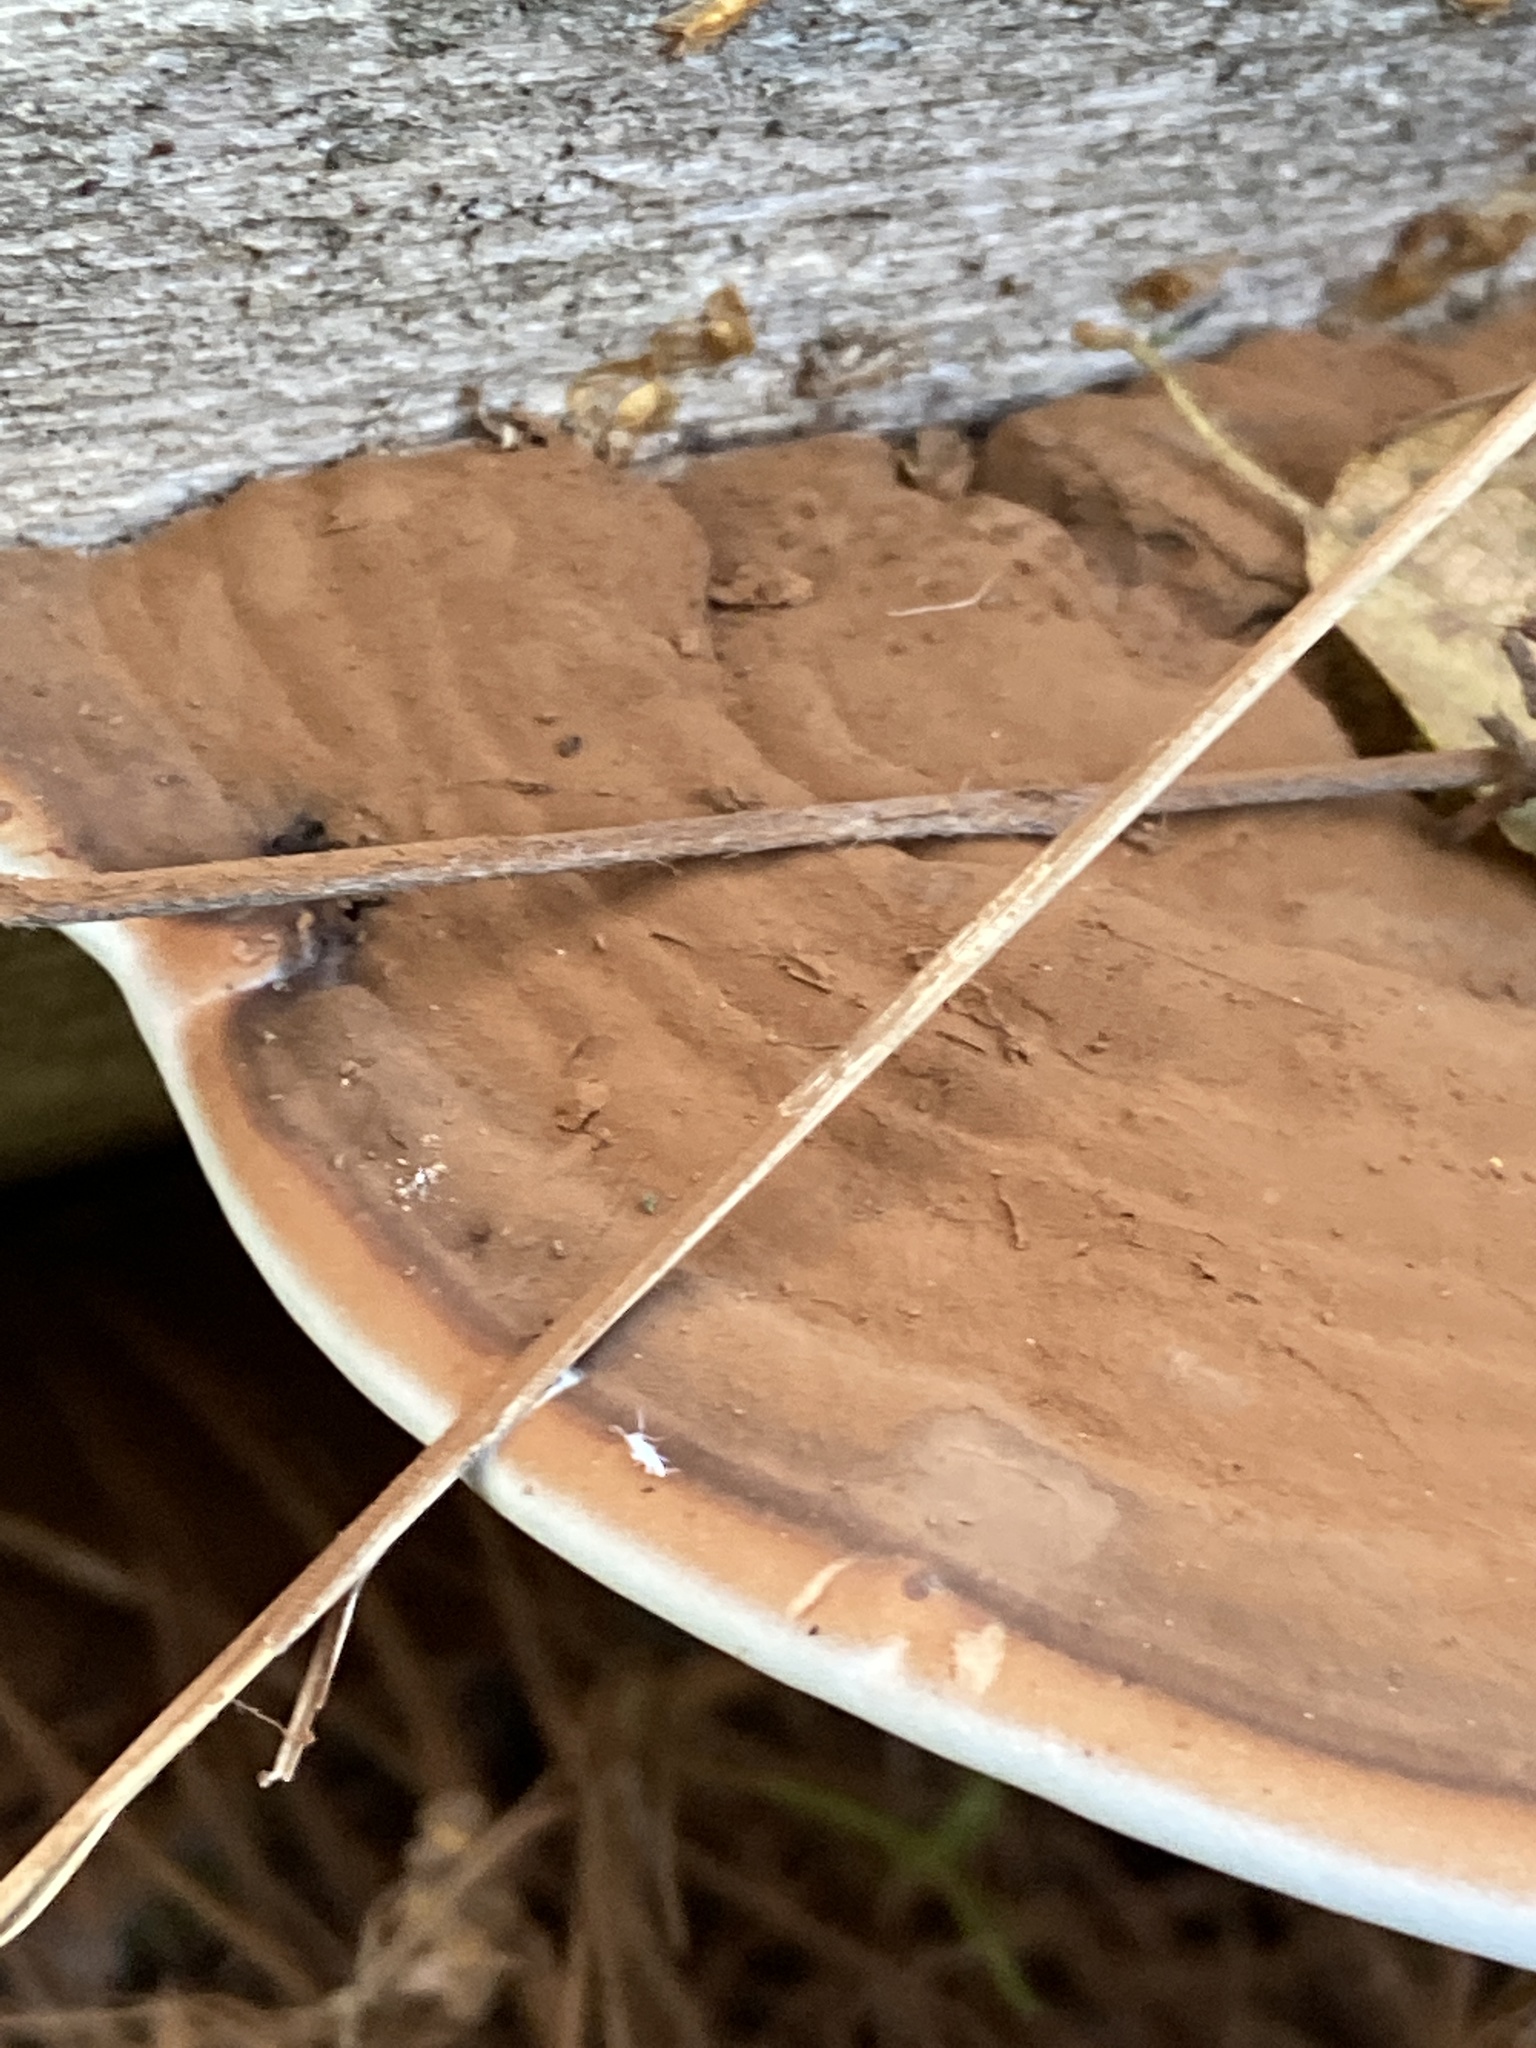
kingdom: Fungi
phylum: Basidiomycota
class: Agaricomycetes
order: Polyporales
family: Polyporaceae
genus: Ganoderma
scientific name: Ganoderma applanatum
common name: Artist's bracket
